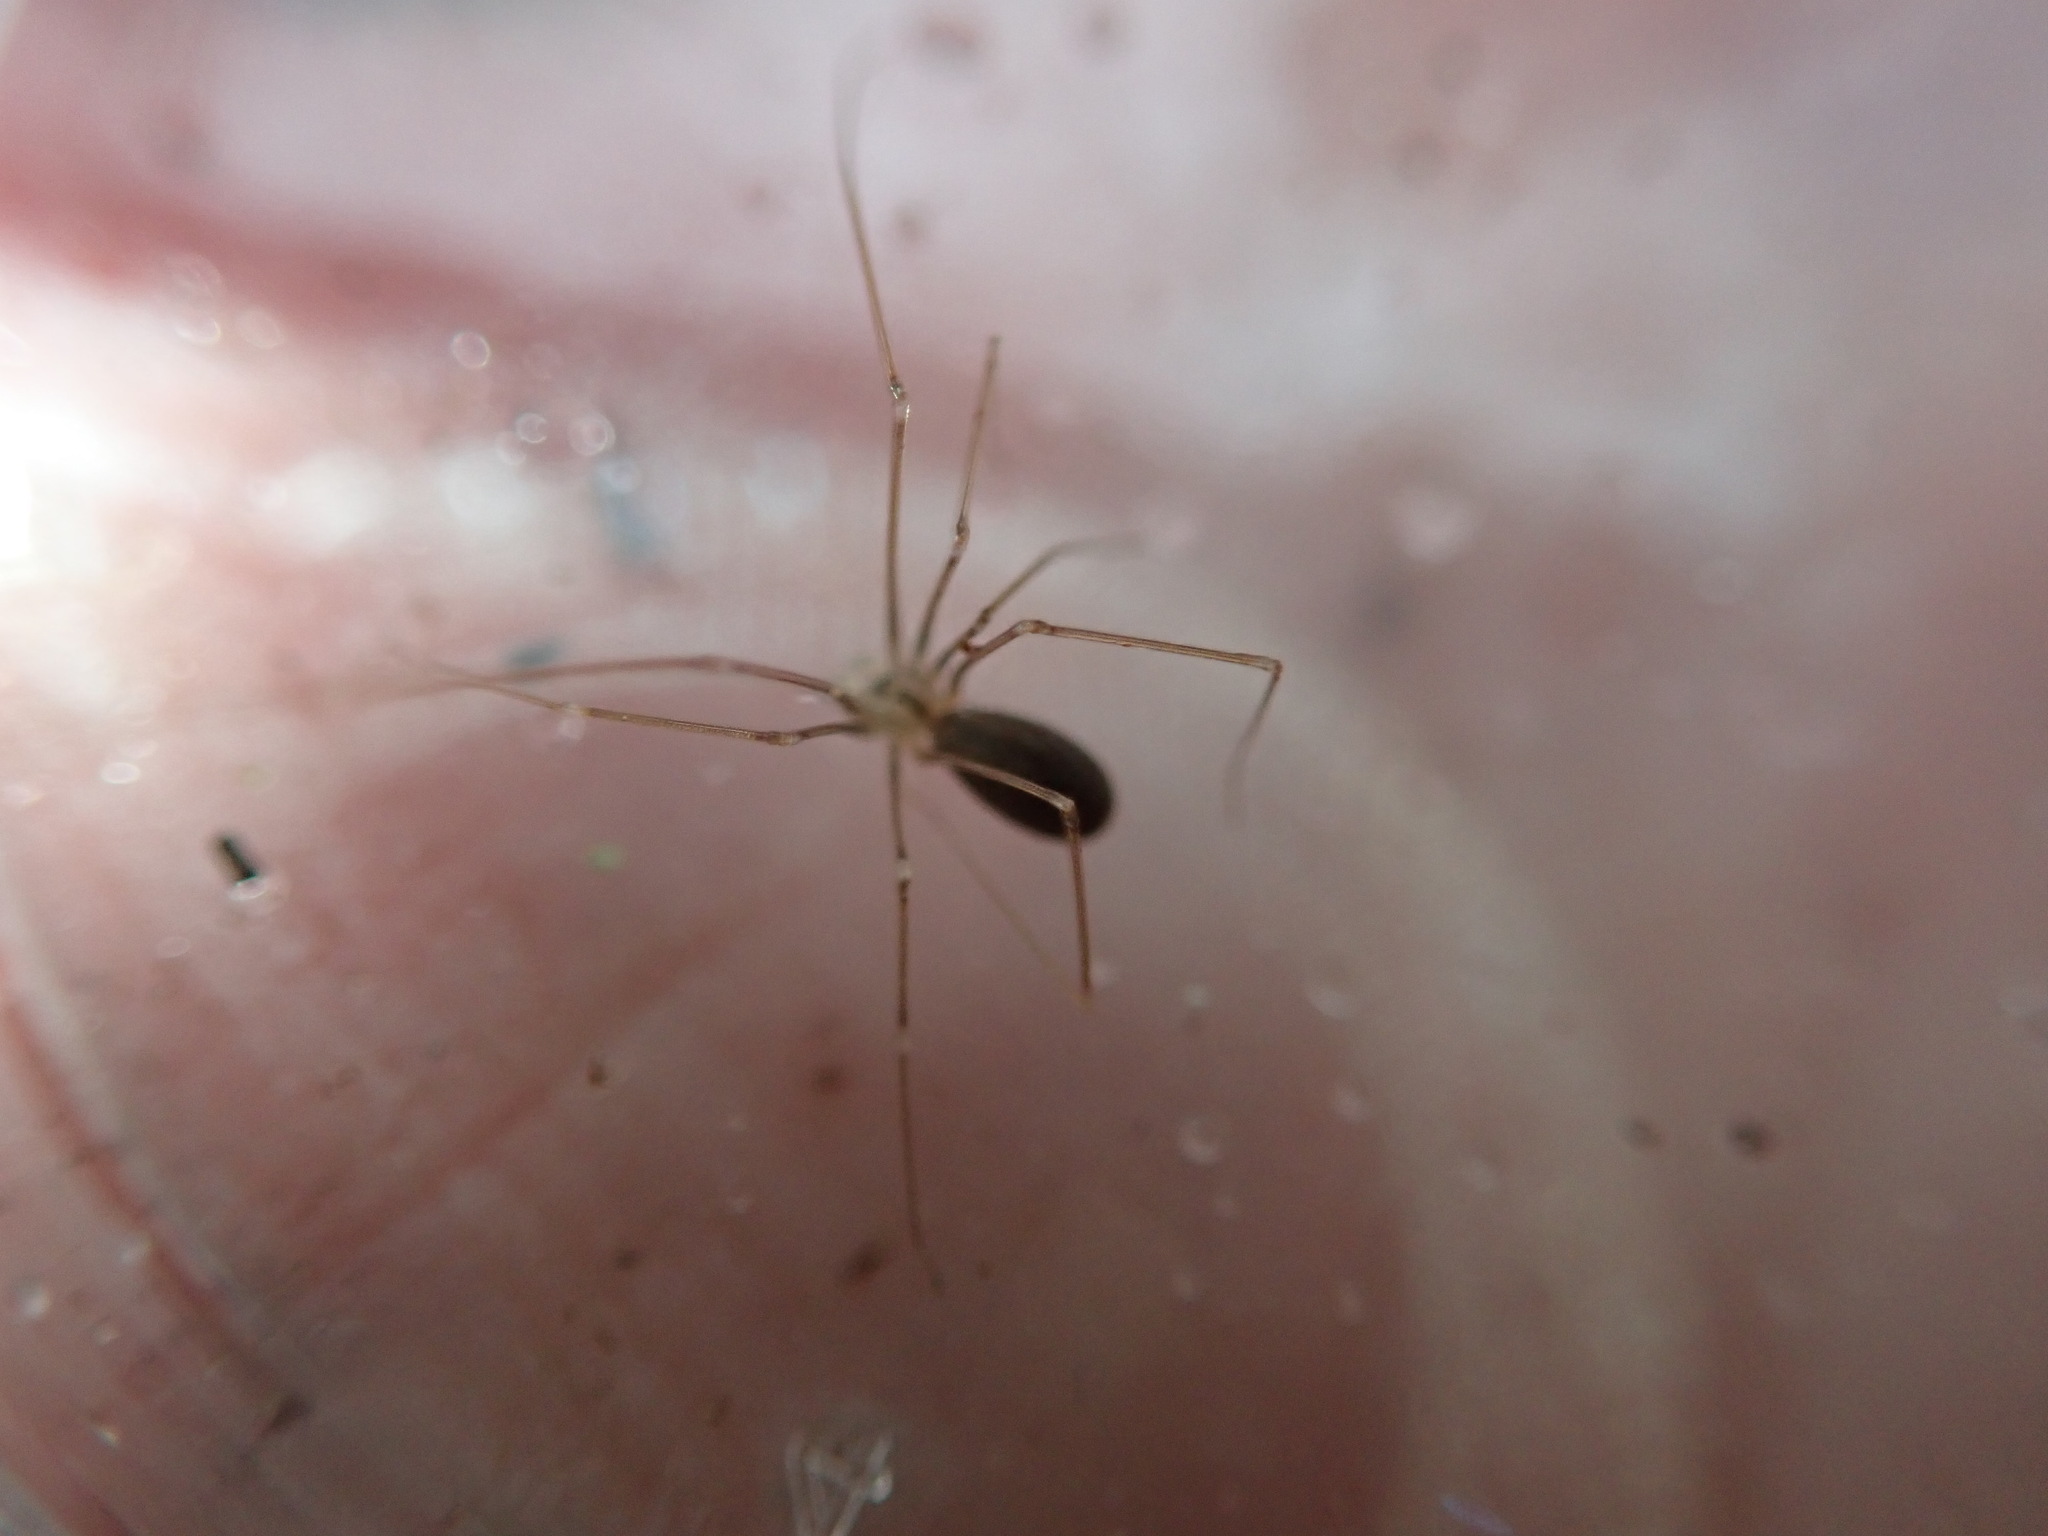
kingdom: Animalia
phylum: Arthropoda
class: Arachnida
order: Araneae
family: Pholcidae
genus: Pholcus
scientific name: Pholcus opilionoides
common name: Daddylongleg spider
